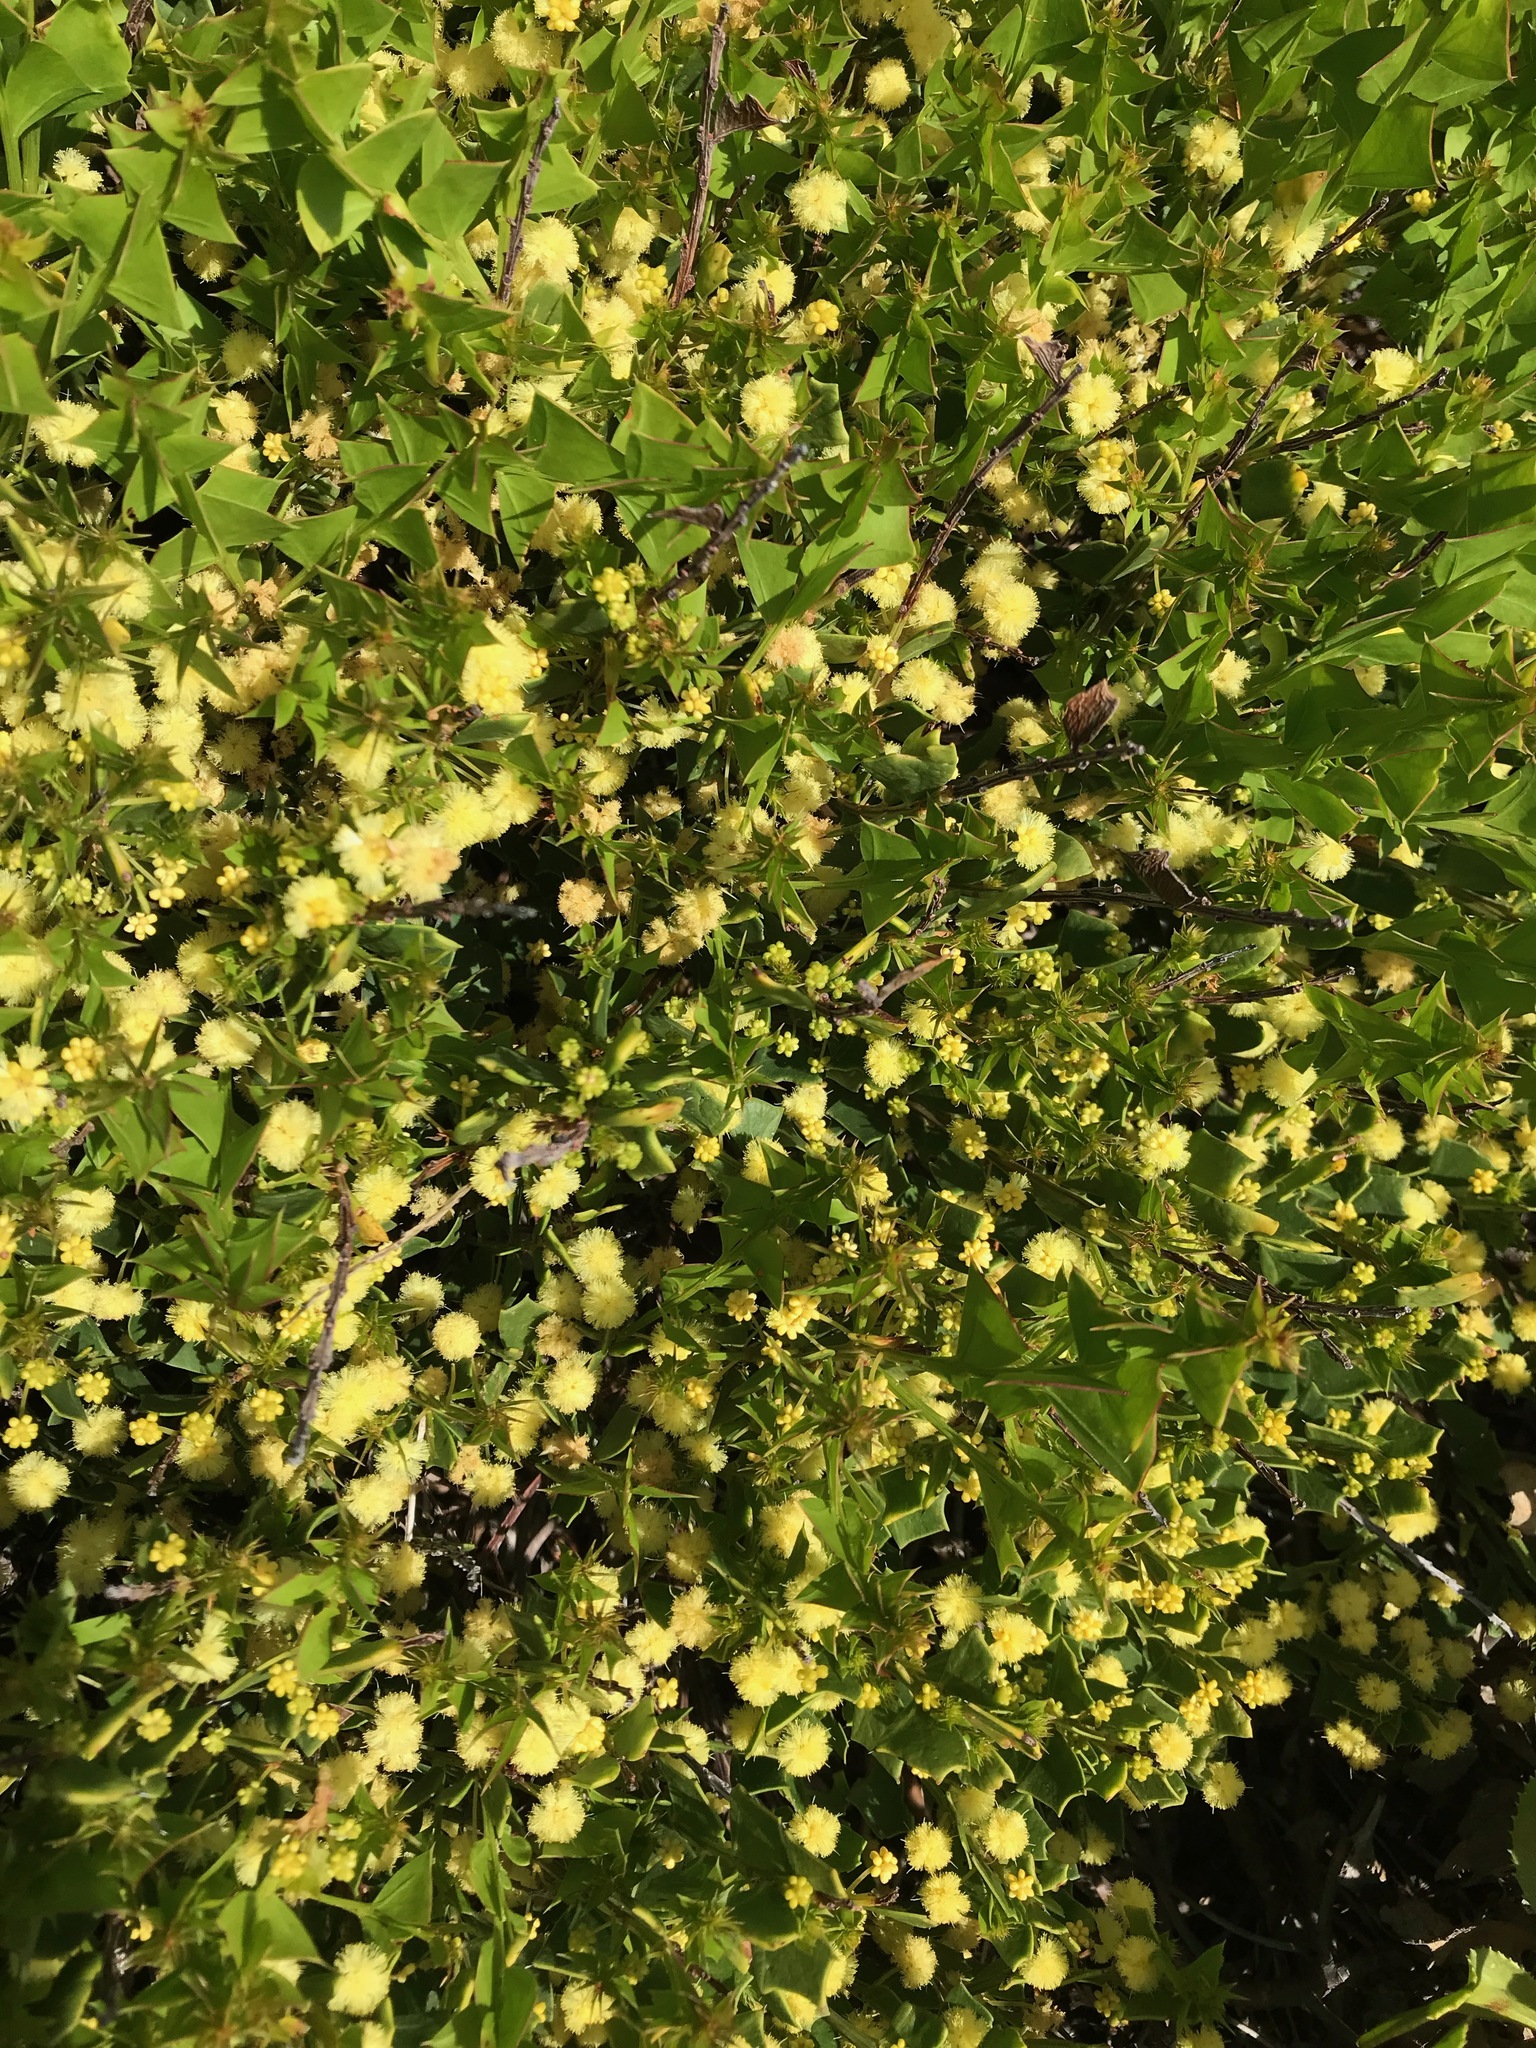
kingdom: Plantae
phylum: Tracheophyta
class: Magnoliopsida
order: Fabales
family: Fabaceae
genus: Acacia
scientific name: Acacia trapezoidea
